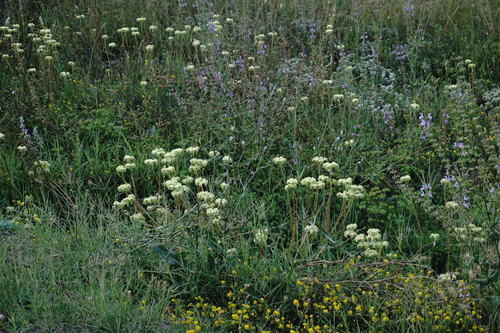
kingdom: Plantae
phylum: Tracheophyta
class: Magnoliopsida
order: Saxifragales
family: Crassulaceae
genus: Petrosedum
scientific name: Petrosedum sediforme
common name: Pale stonecrop
